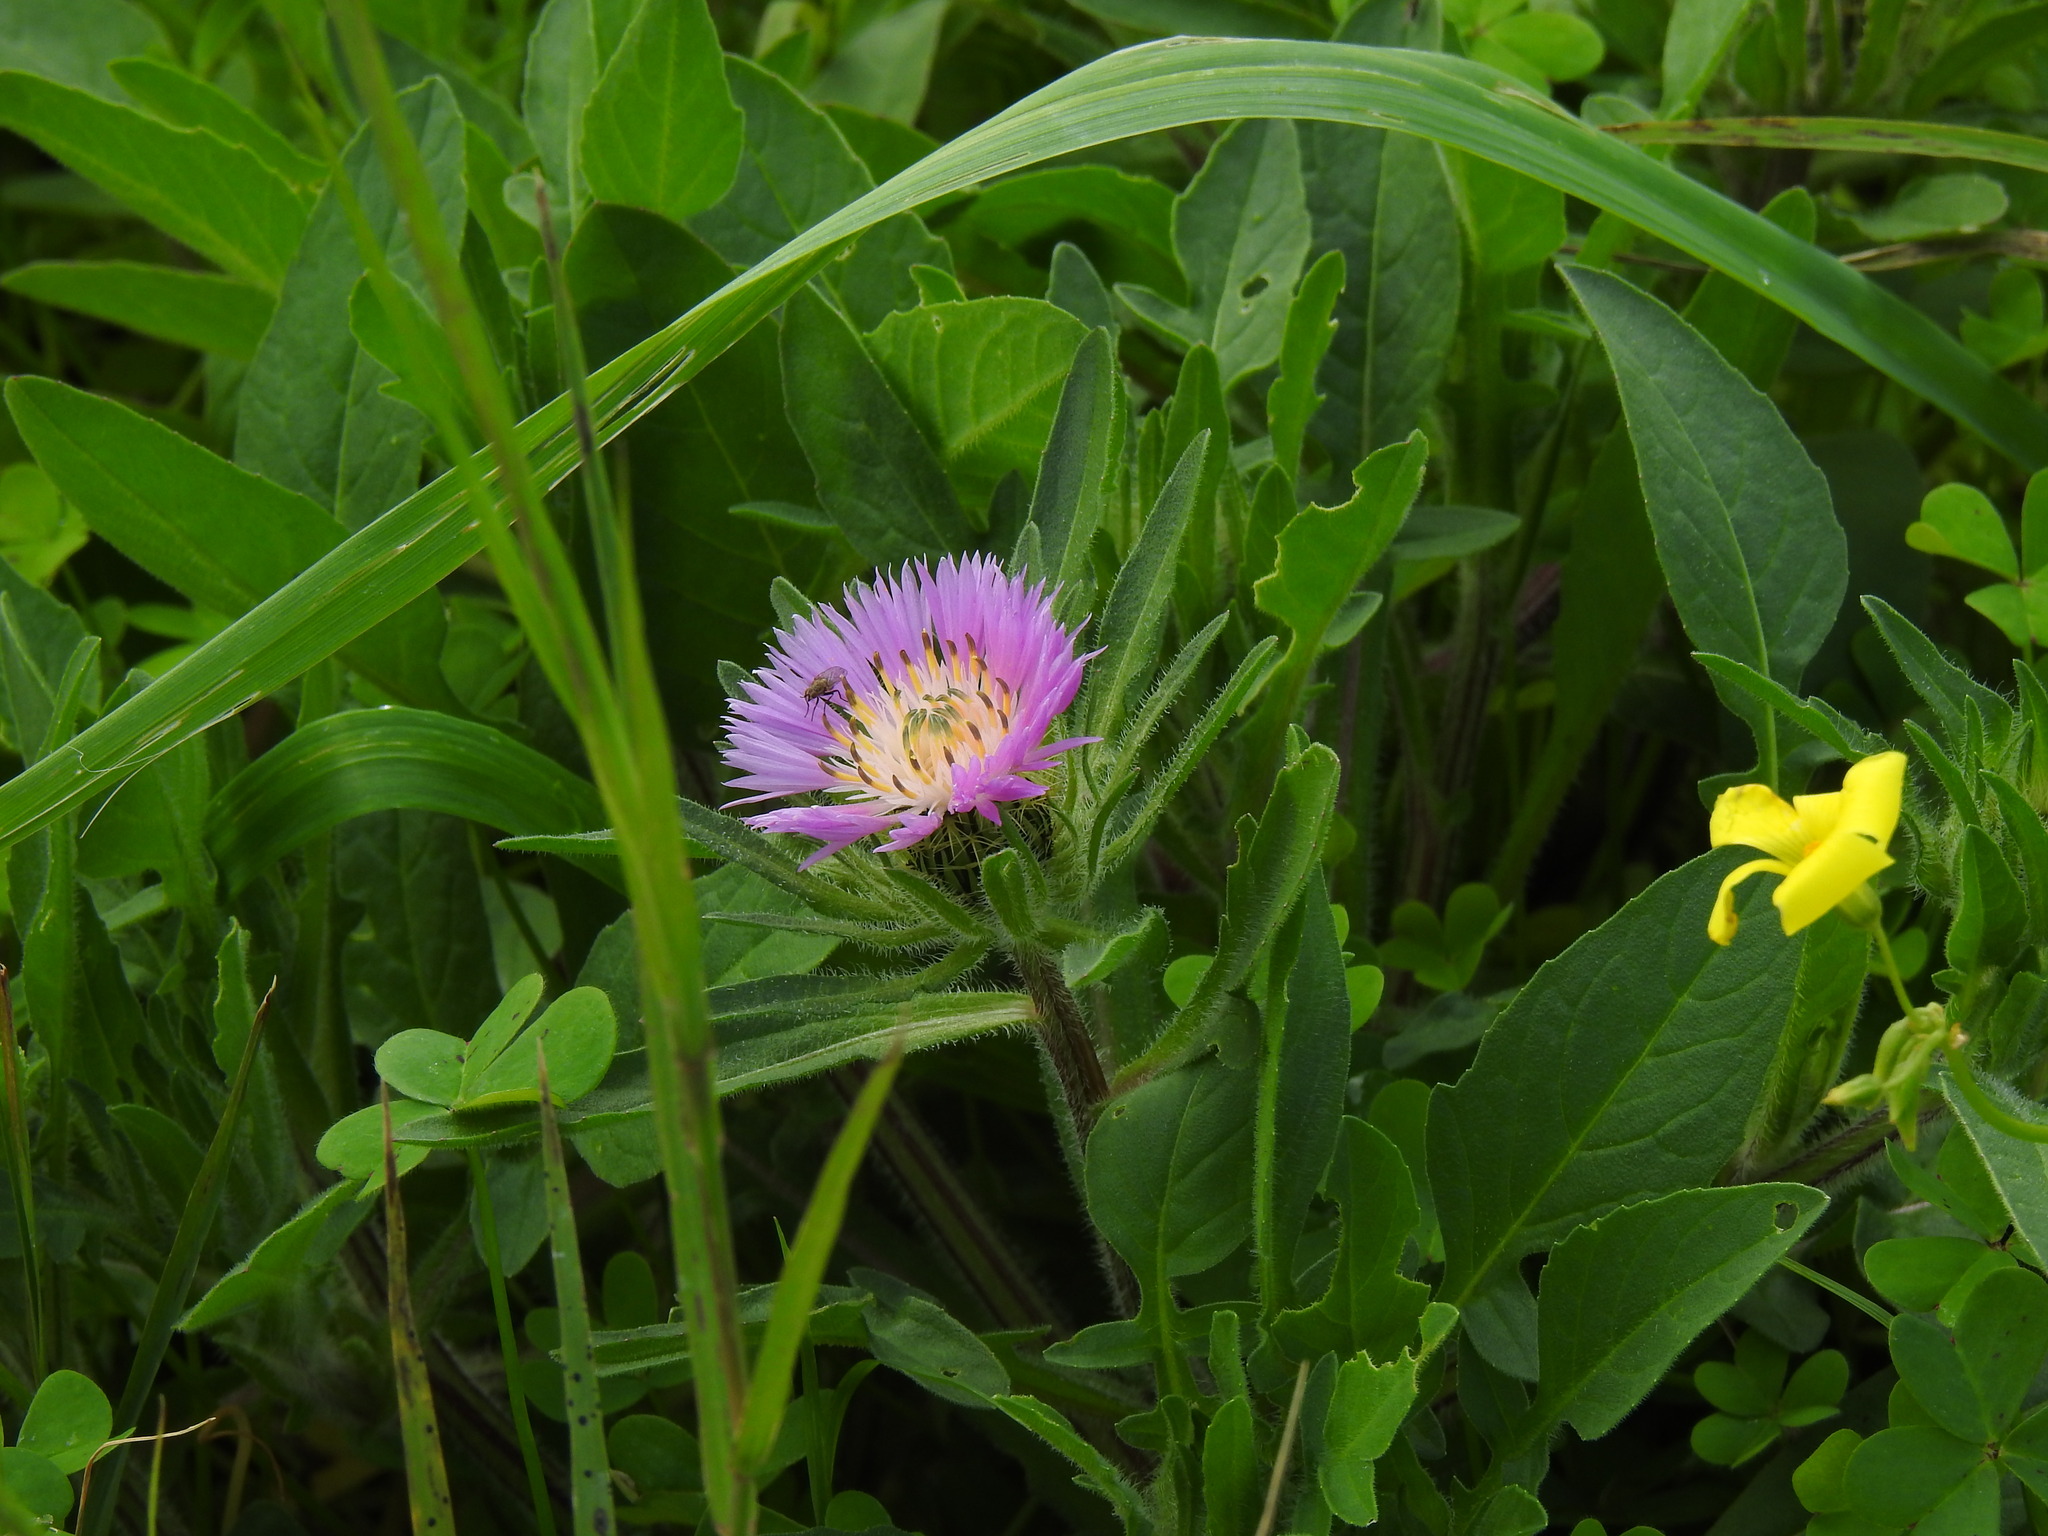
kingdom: Plantae
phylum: Tracheophyta
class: Magnoliopsida
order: Asterales
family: Asteraceae
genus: Centaurea
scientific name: Centaurea pullata
